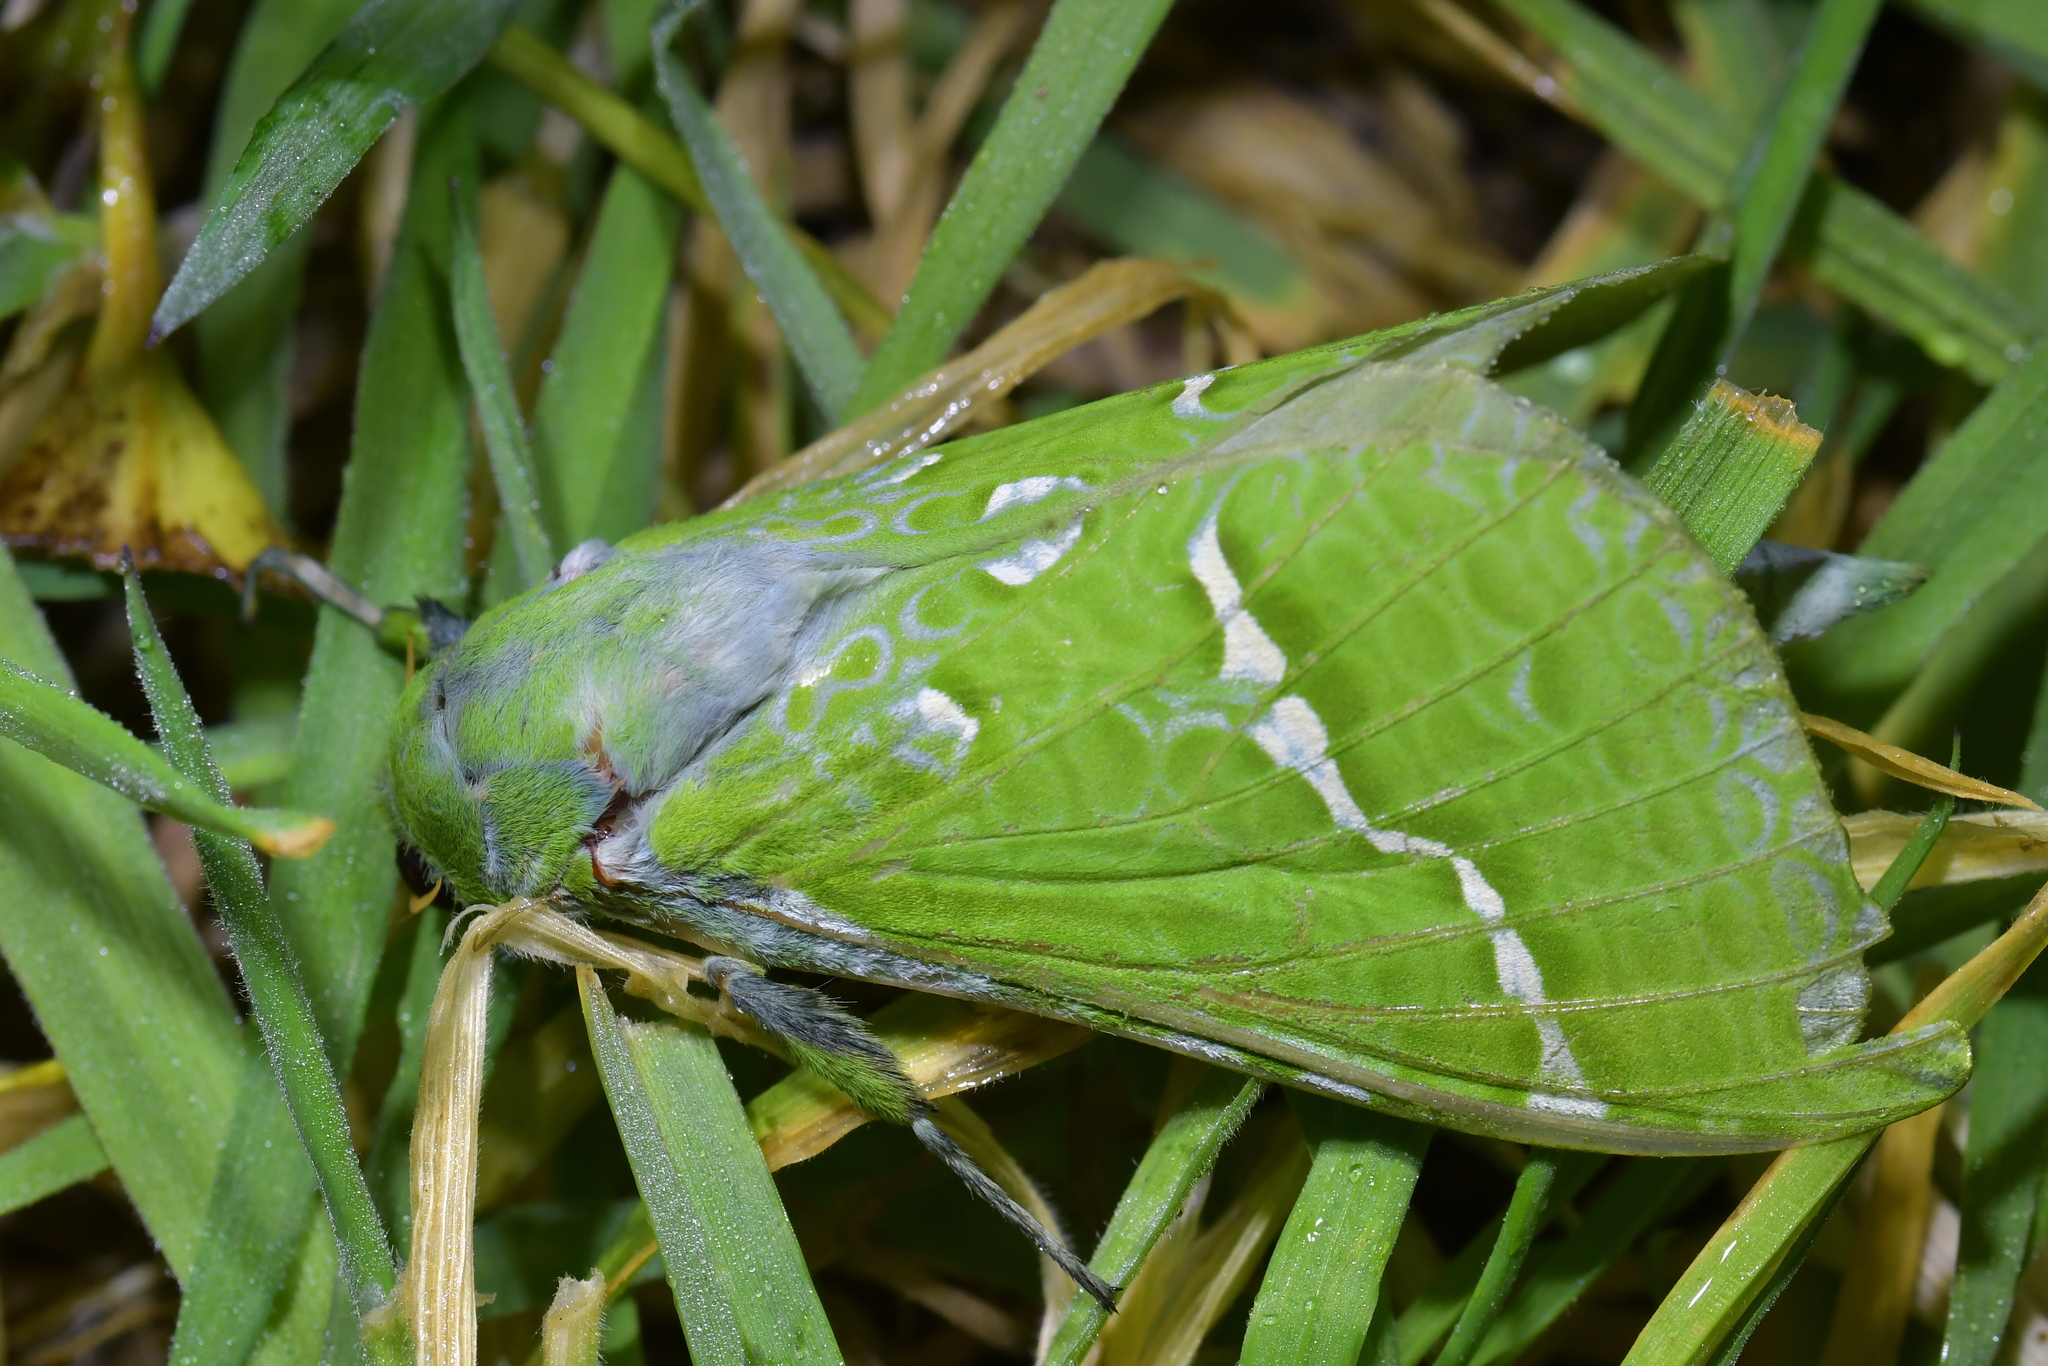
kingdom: Animalia
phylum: Arthropoda
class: Insecta
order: Lepidoptera
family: Hepialidae
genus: Aenetus
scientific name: Aenetus virescens
